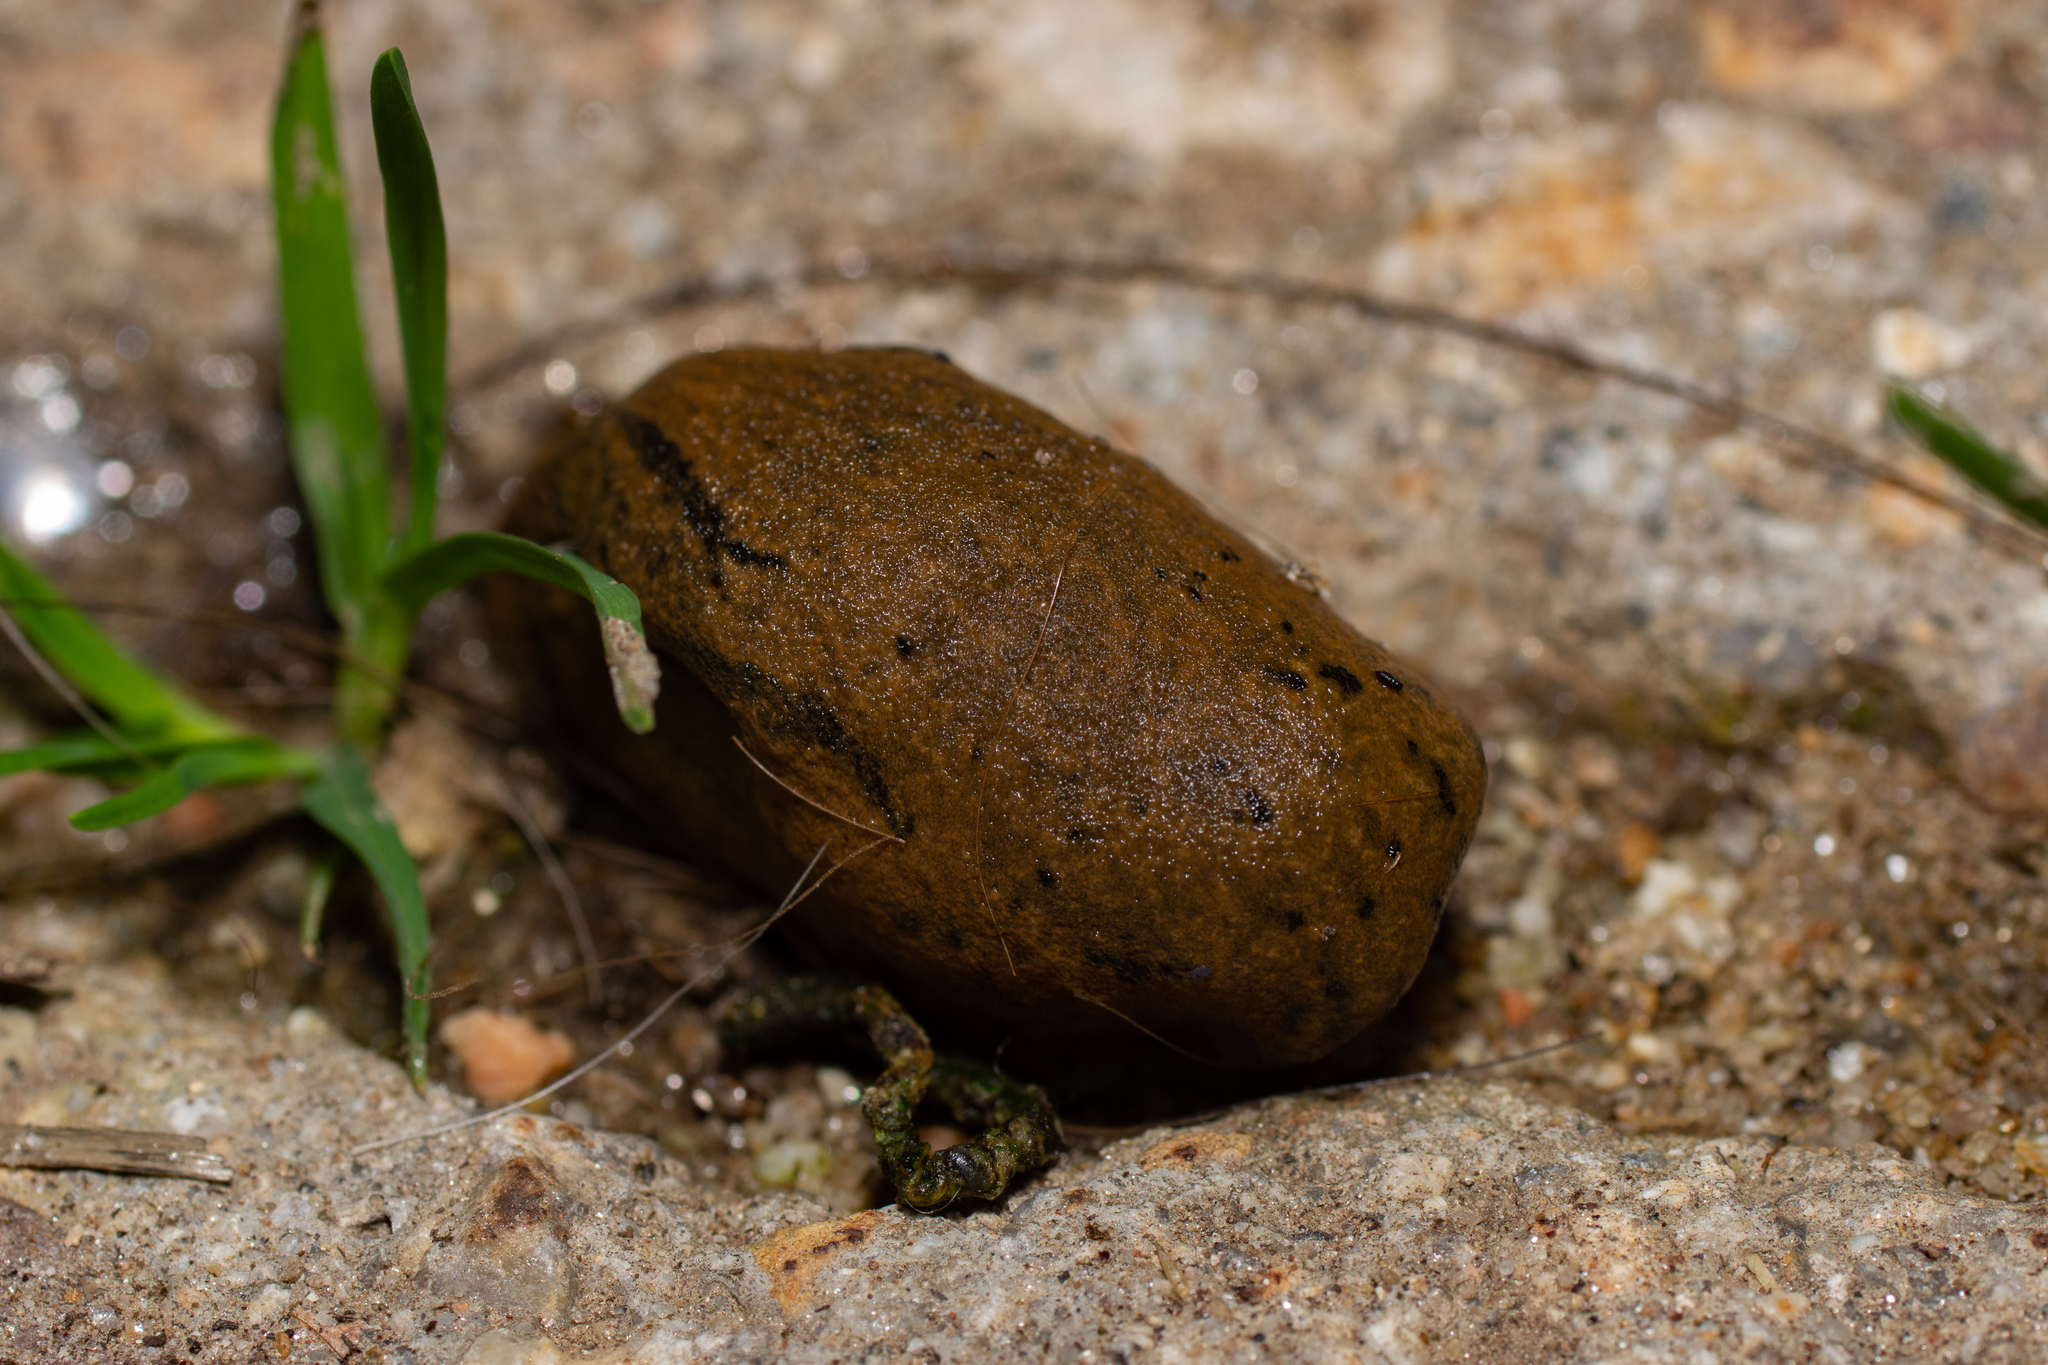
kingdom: Animalia
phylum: Mollusca
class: Gastropoda
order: Stylommatophora
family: Parmacellidae
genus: Drusia
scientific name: Drusia valenciennii
